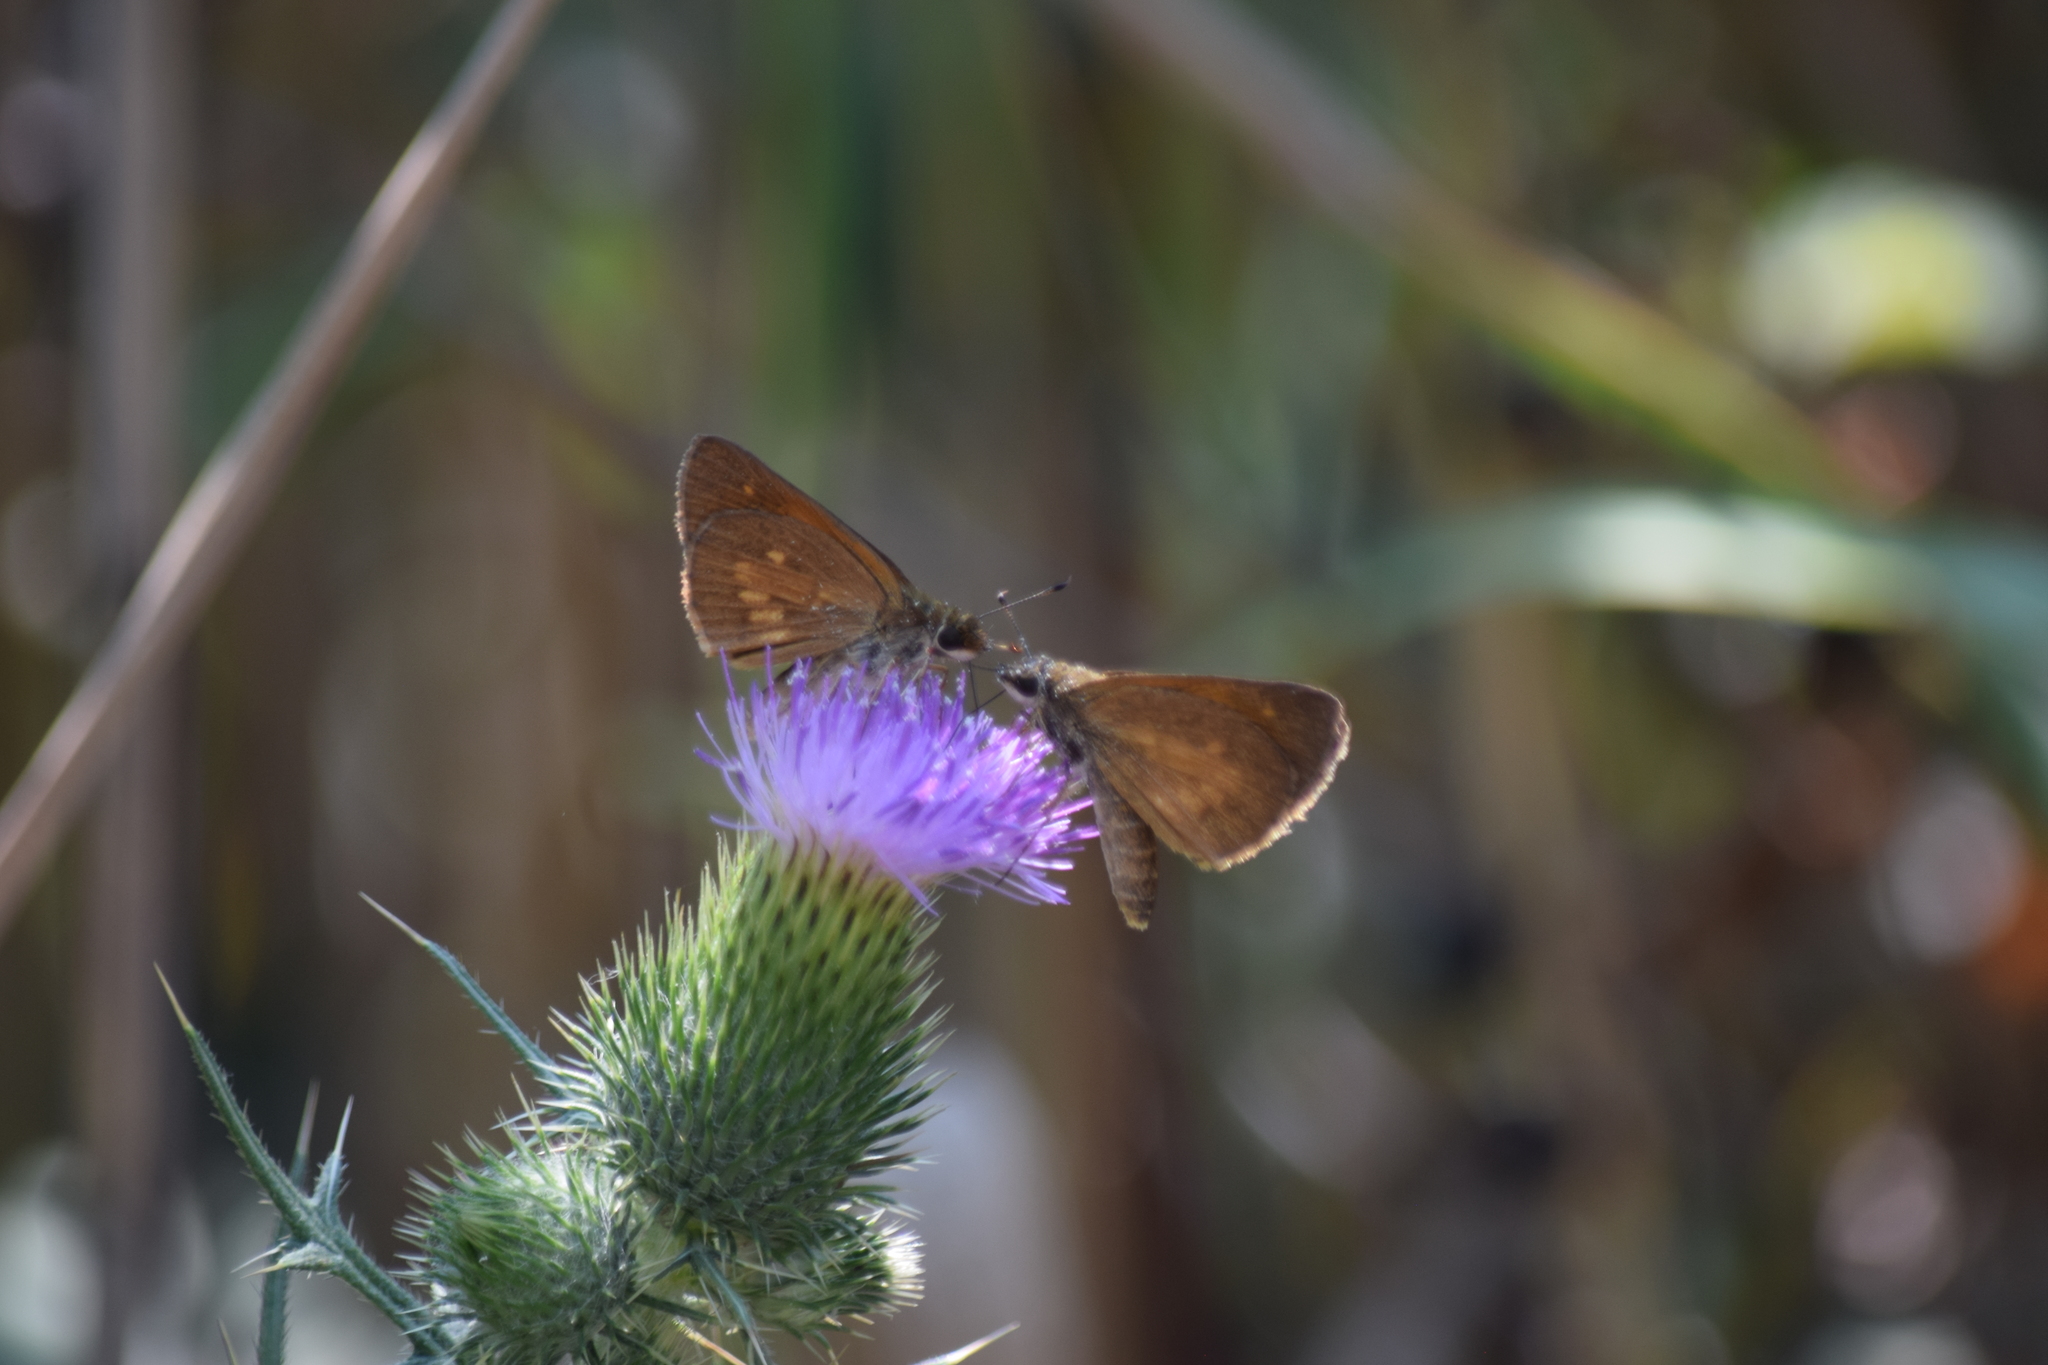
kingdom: Animalia
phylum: Arthropoda
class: Insecta
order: Lepidoptera
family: Hesperiidae
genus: Poanes
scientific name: Poanes viator
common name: Broad-winged skipper
